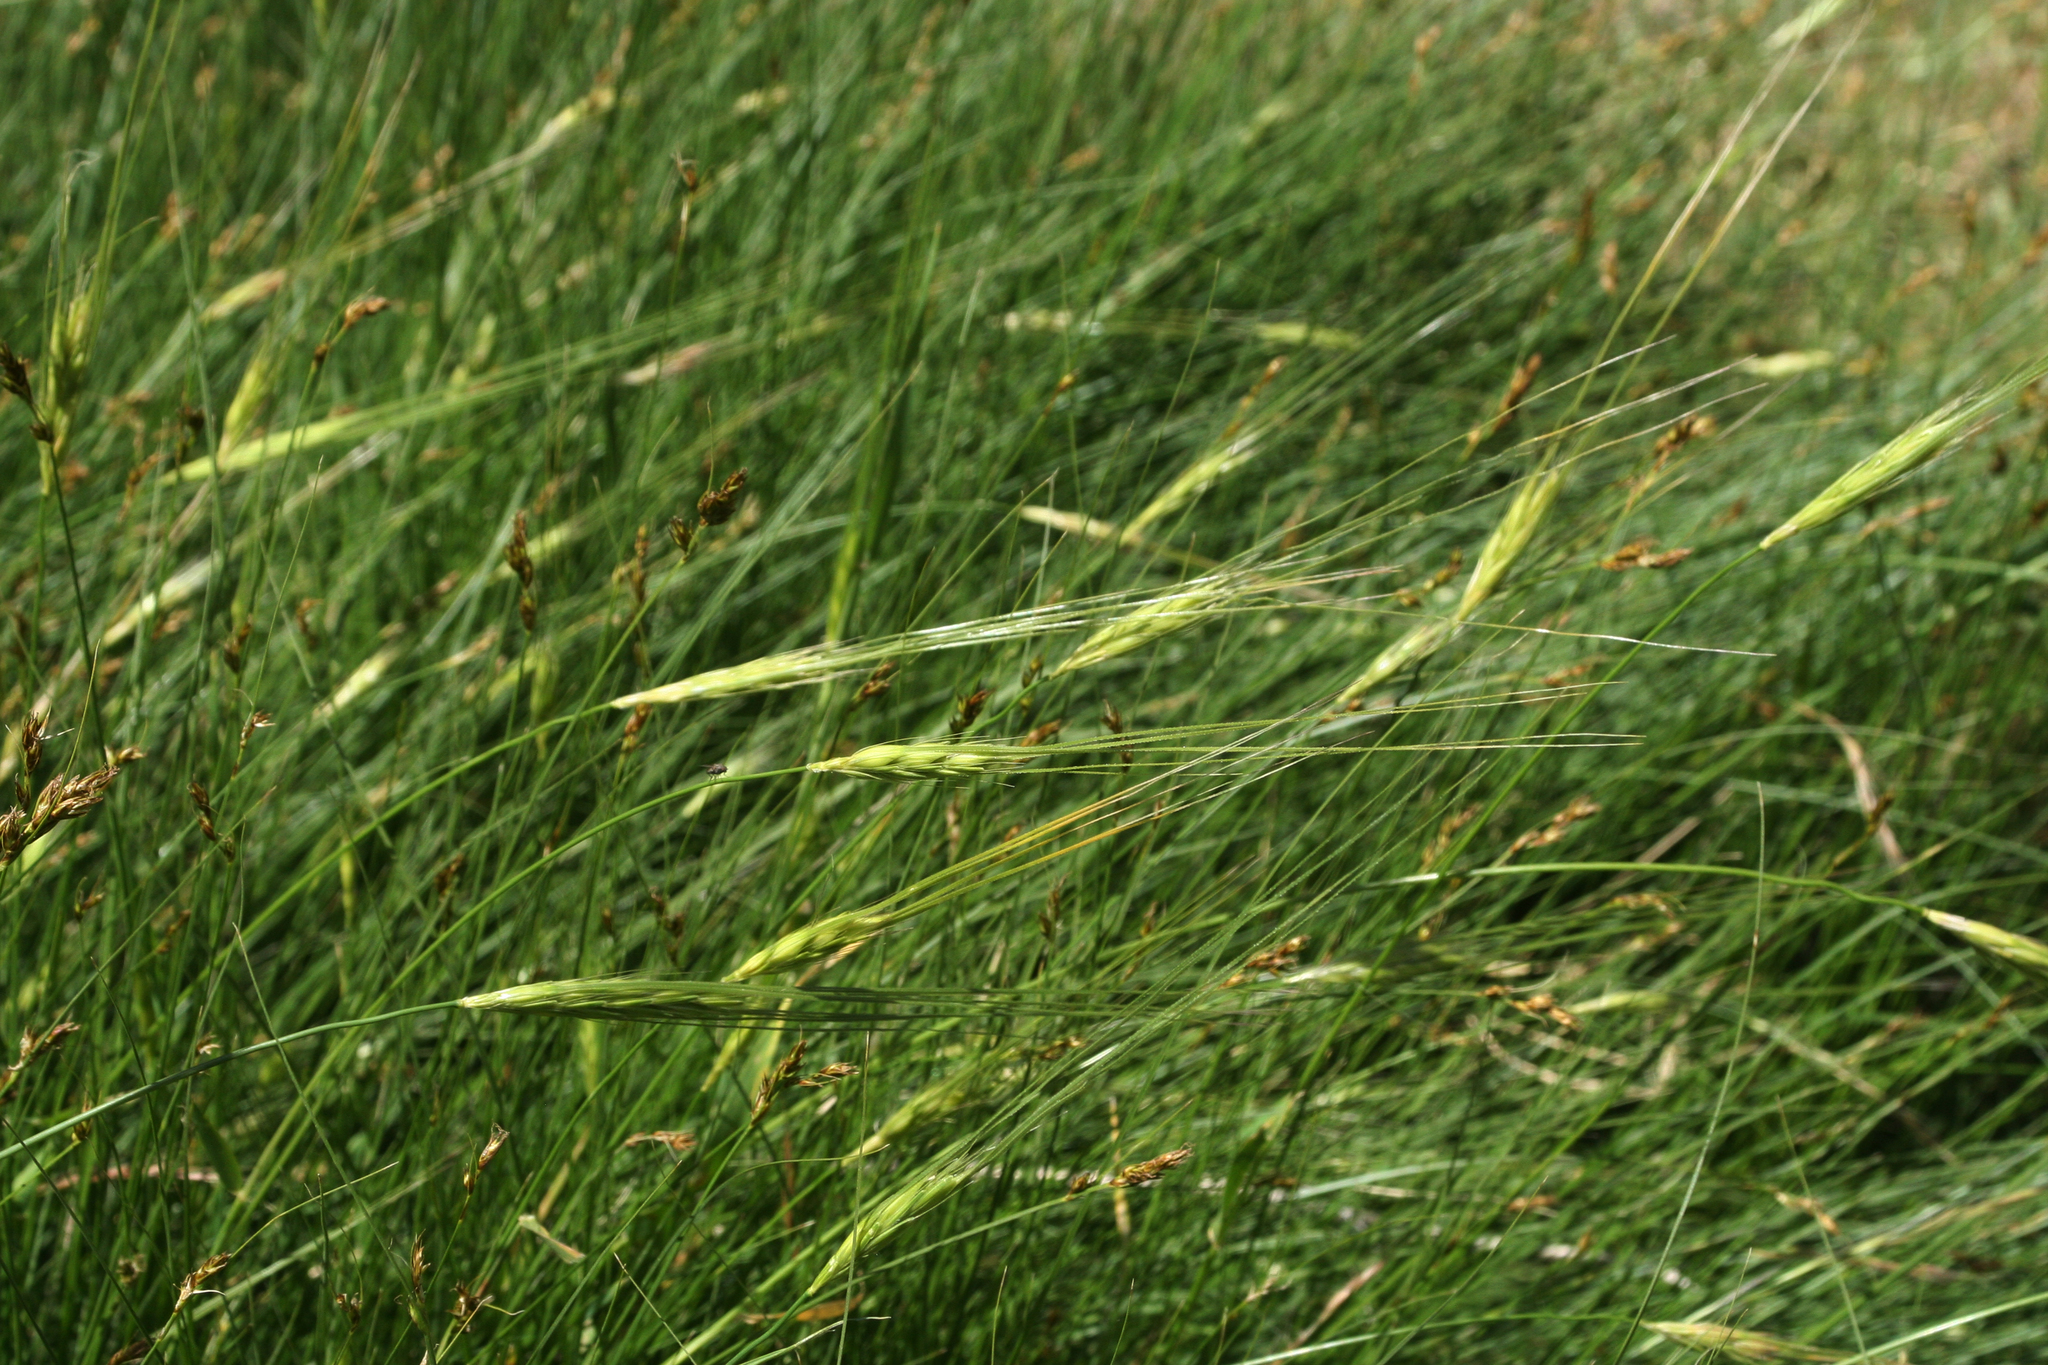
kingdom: Plantae
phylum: Tracheophyta
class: Liliopsida
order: Poales
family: Poaceae
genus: Hordeum
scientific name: Hordeum spontaneum
